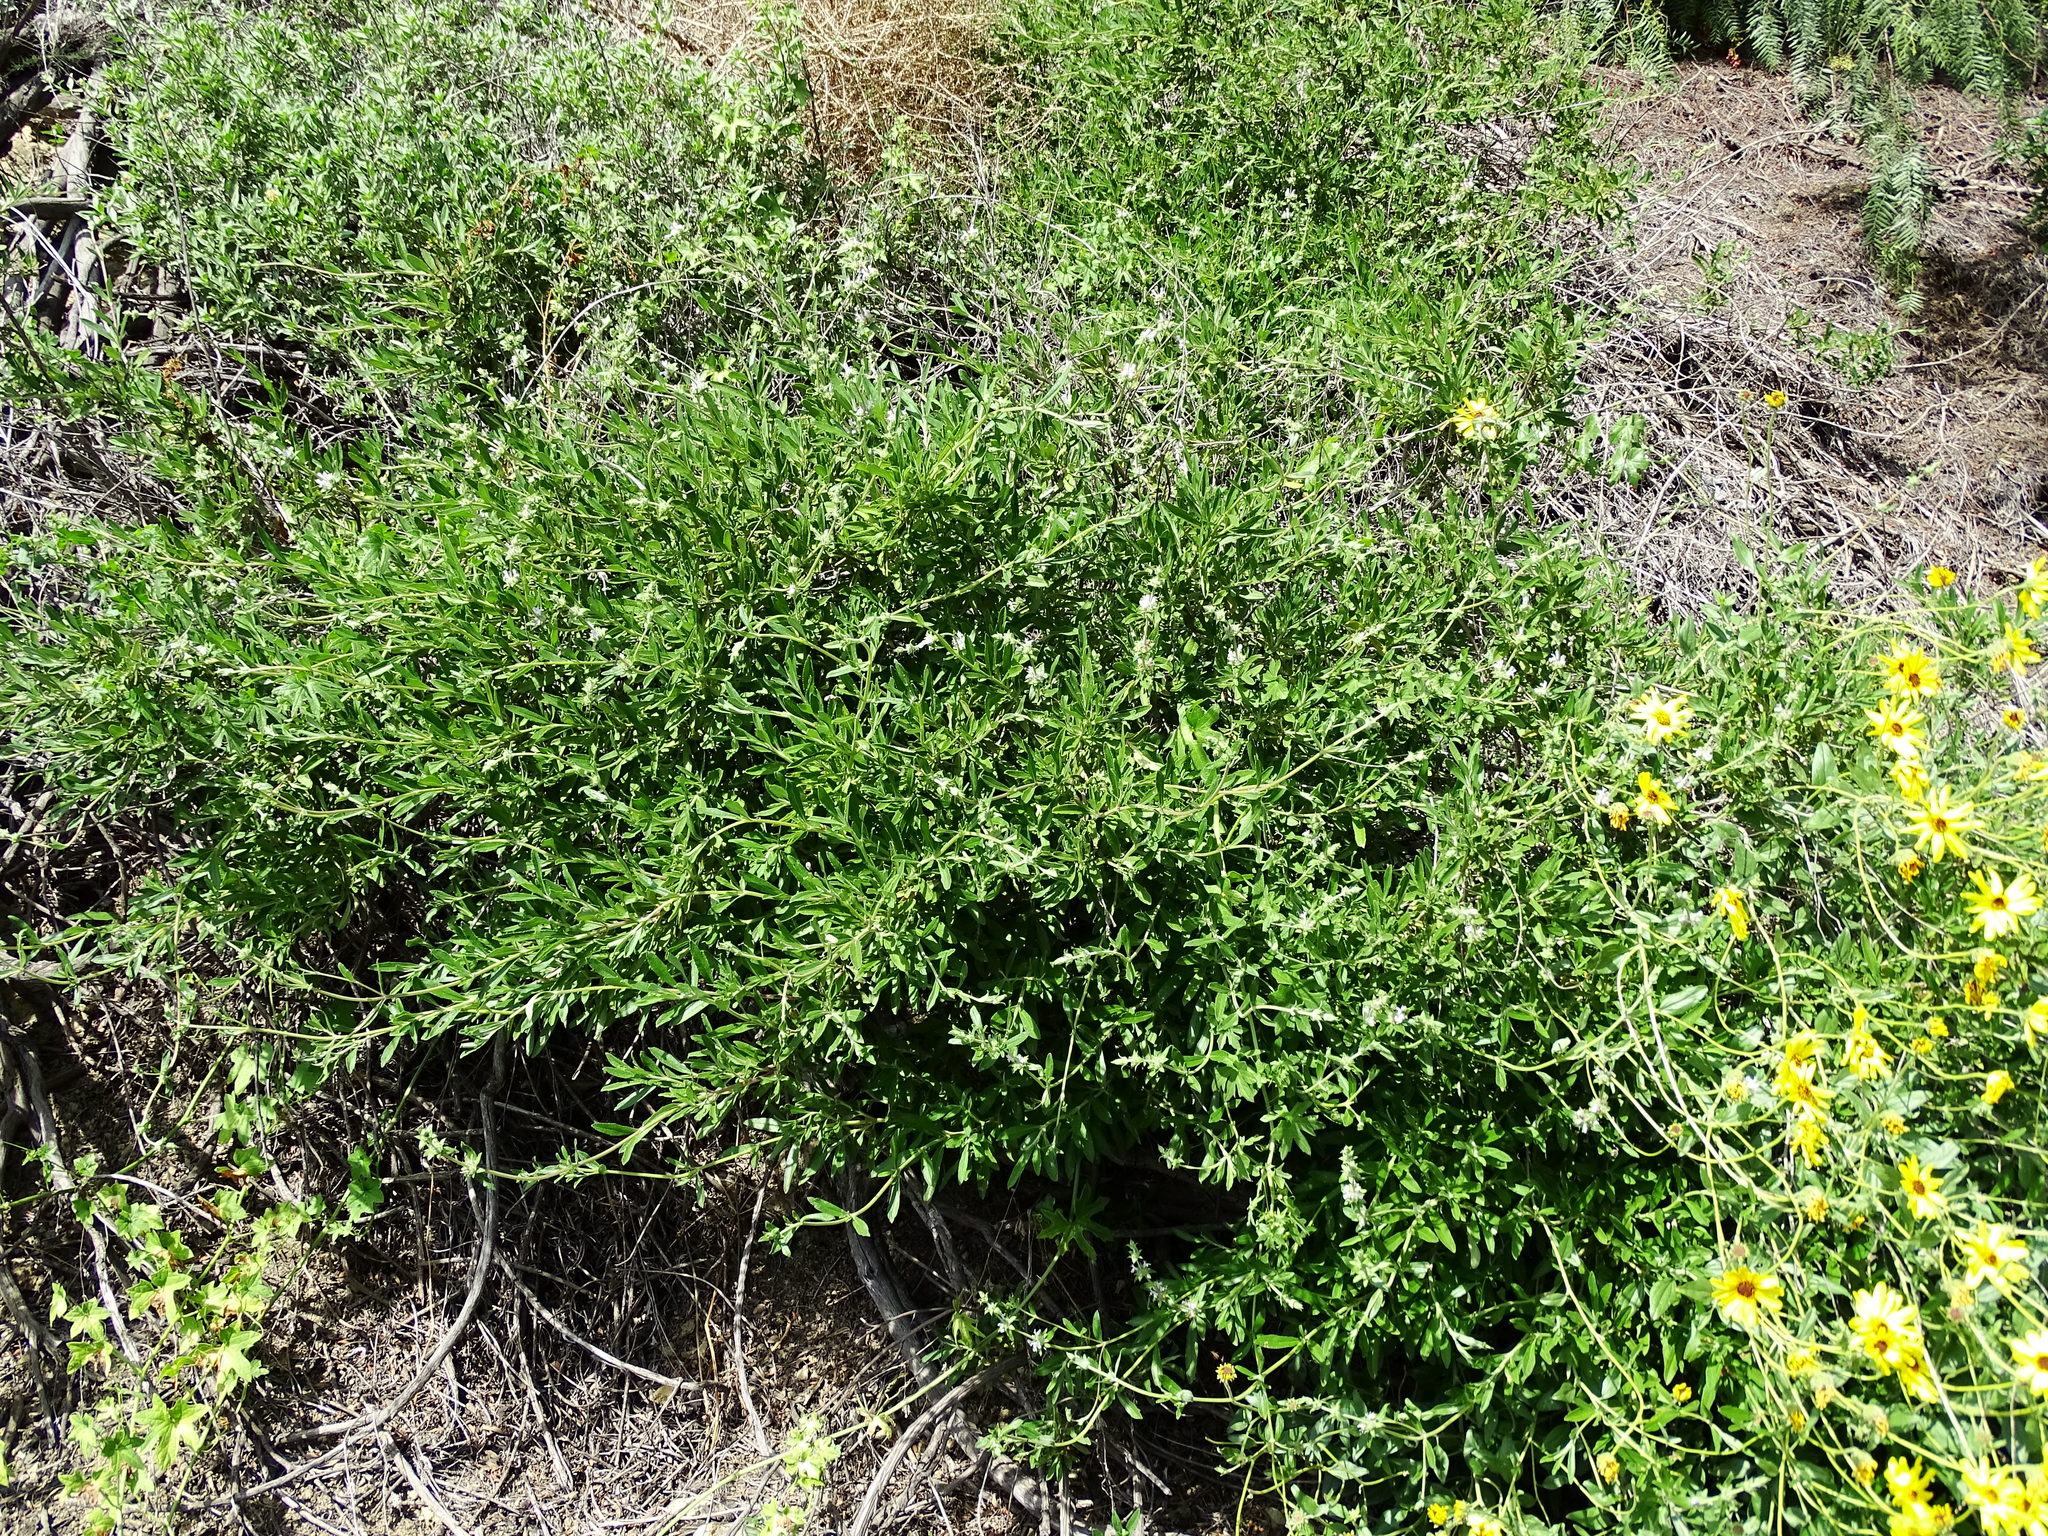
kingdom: Plantae
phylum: Tracheophyta
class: Magnoliopsida
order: Lamiales
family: Lamiaceae
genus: Salvia
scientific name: Salvia mellifera
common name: Black sage
